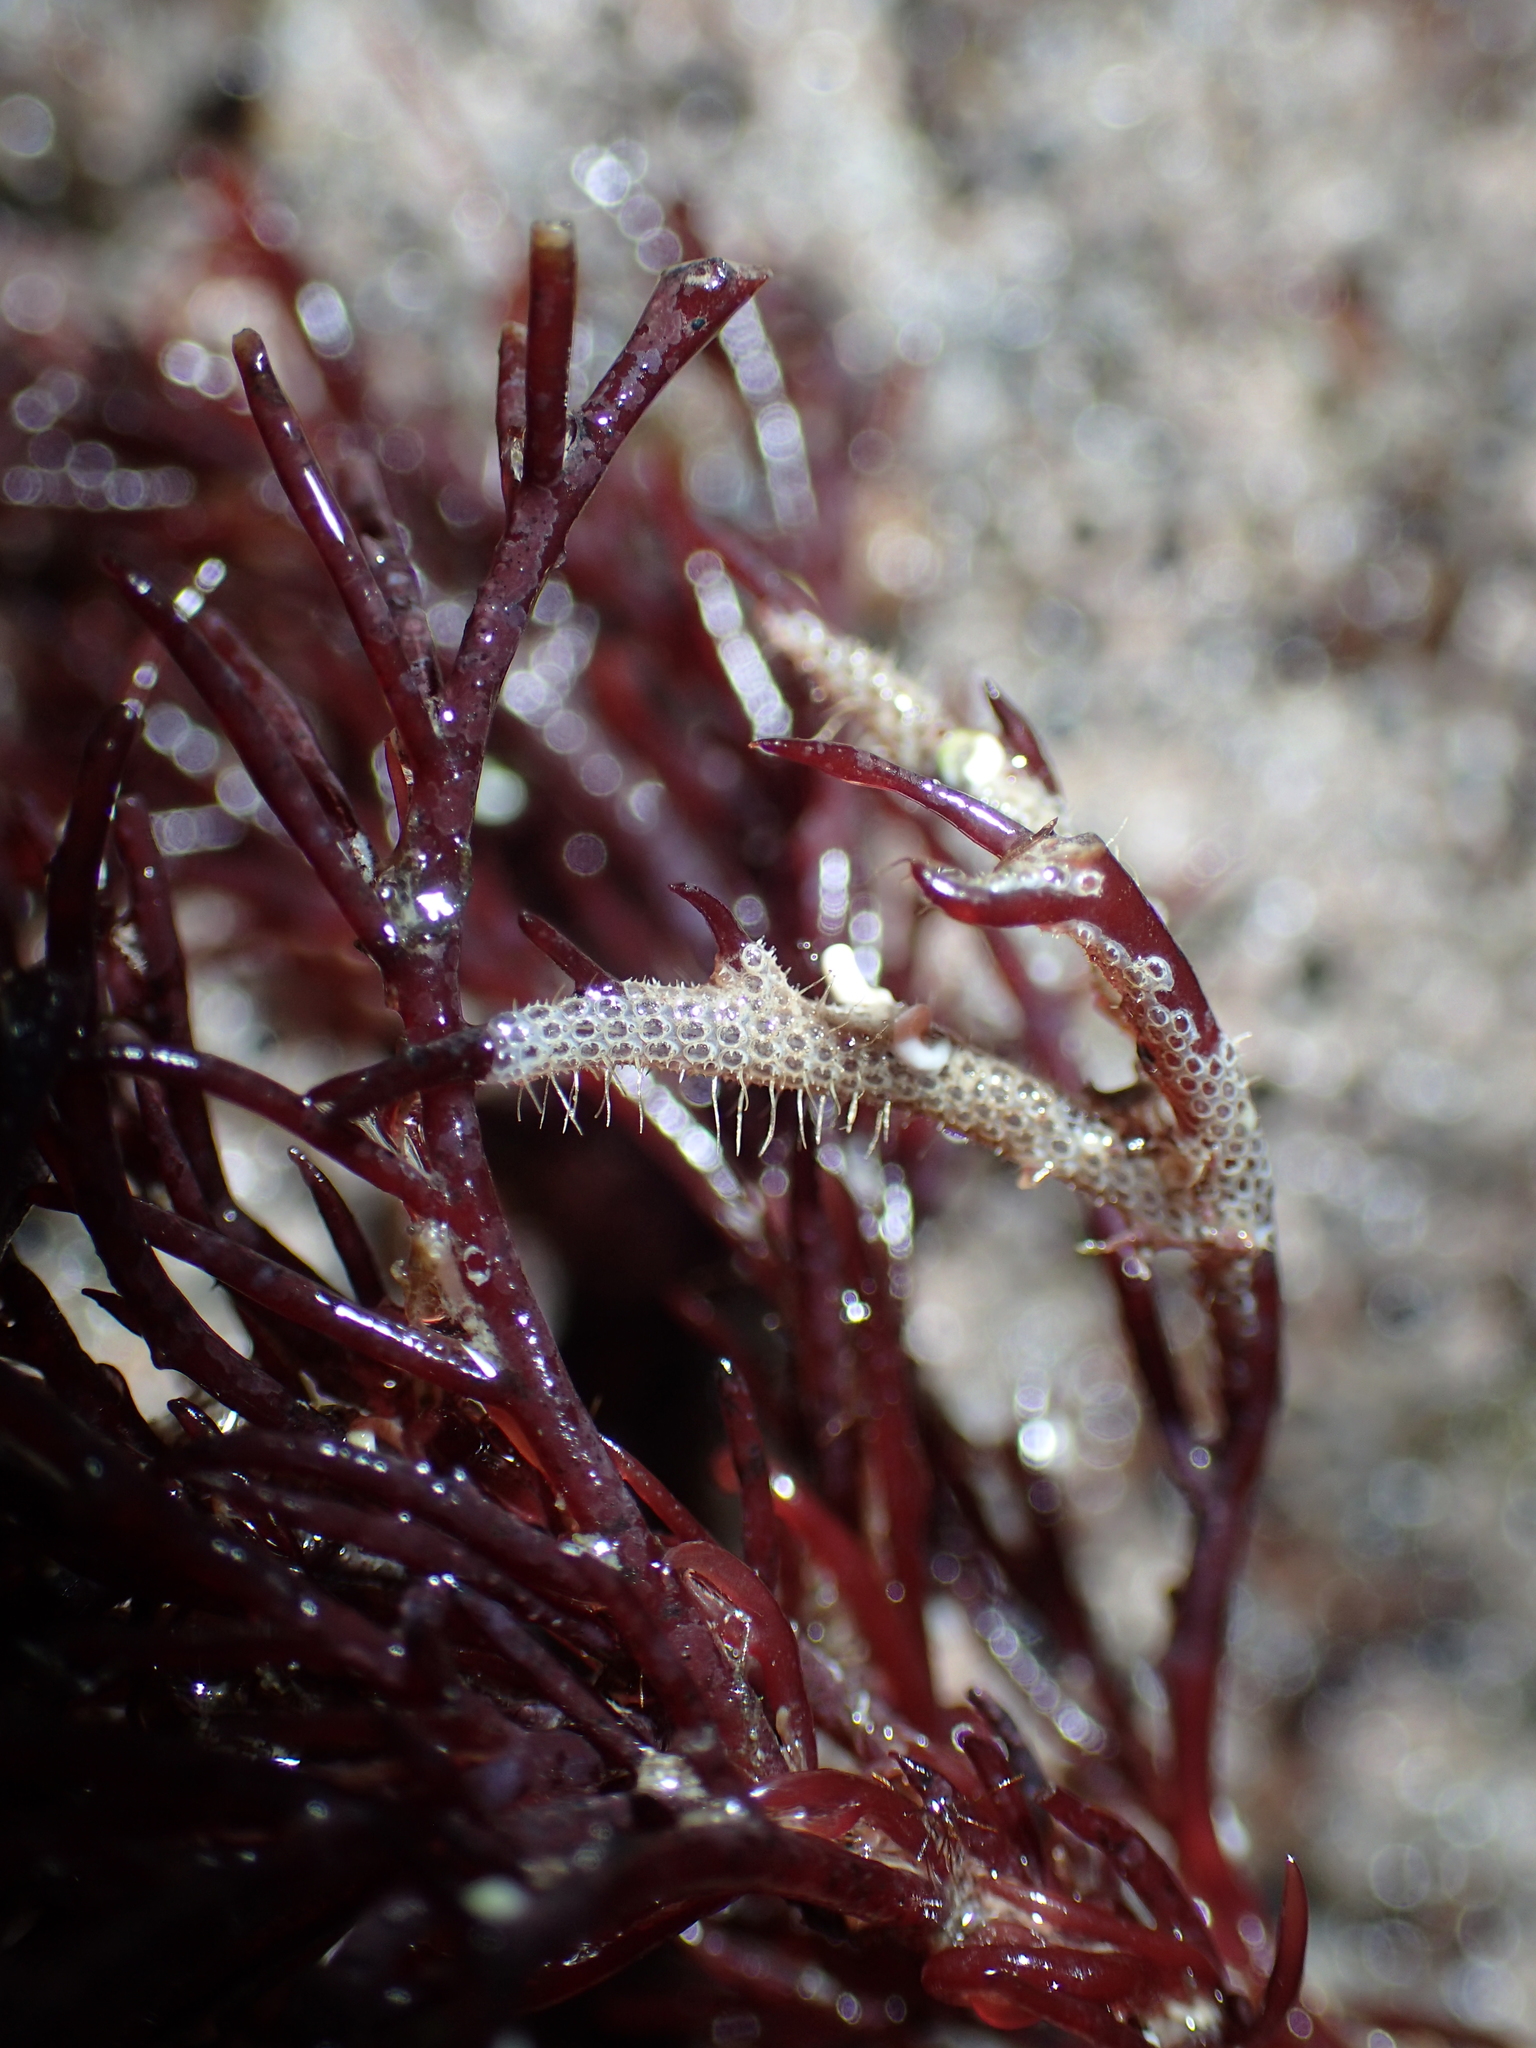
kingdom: Animalia
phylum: Bryozoa
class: Gymnolaemata
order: Cheilostomatida
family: Electridae
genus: Electra
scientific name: Electra pilosa
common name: Hairy sea-mat
